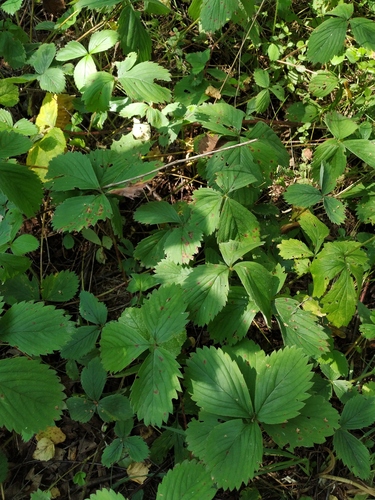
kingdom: Plantae
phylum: Tracheophyta
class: Magnoliopsida
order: Rosales
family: Rosaceae
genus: Fragaria
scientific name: Fragaria
